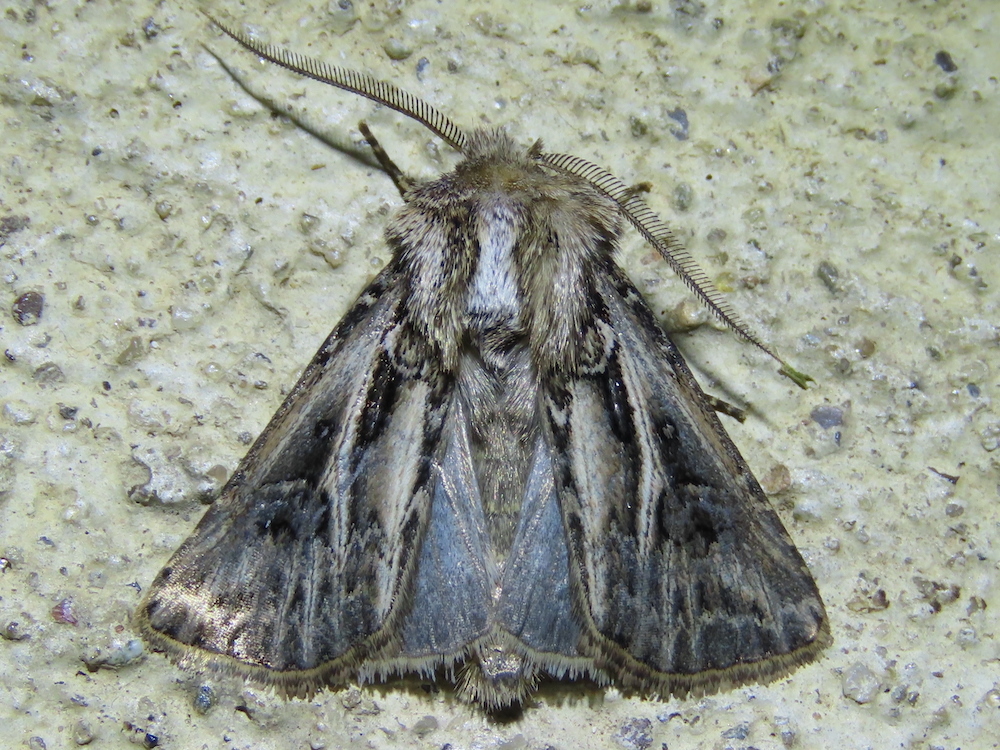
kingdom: Animalia
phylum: Arthropoda
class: Insecta
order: Lepidoptera
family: Noctuidae
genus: Agrotis
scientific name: Agrotis gladiaria
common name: Claybacked cutworm
